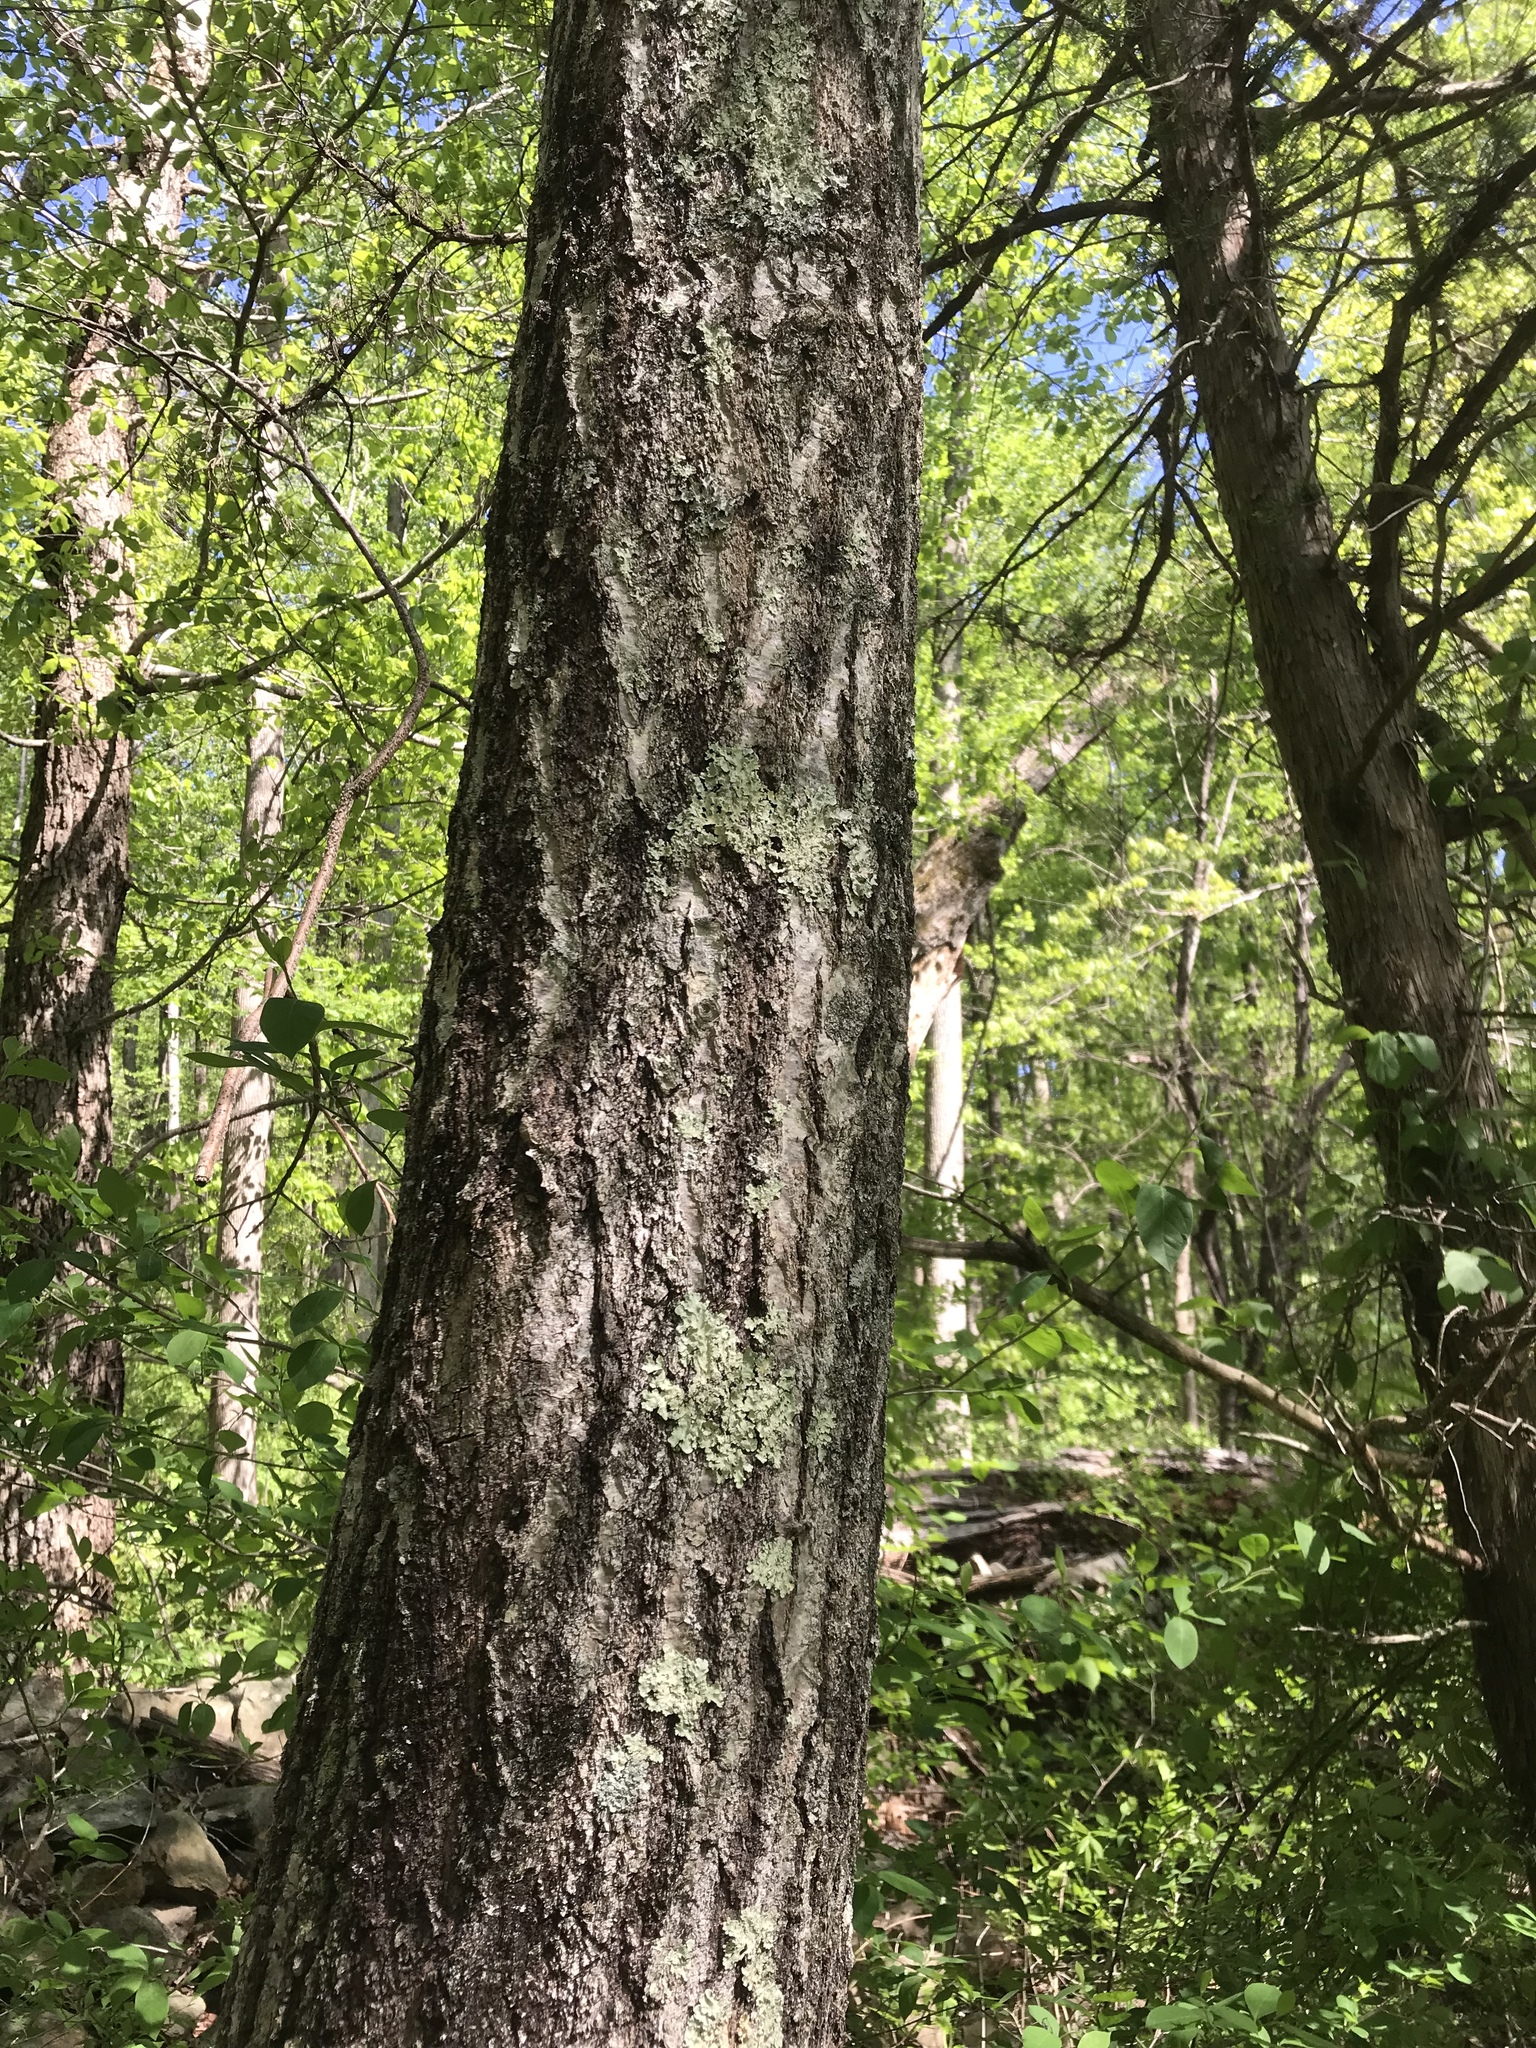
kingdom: Plantae
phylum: Tracheophyta
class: Magnoliopsida
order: Fagales
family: Fagaceae
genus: Quercus
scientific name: Quercus rubra
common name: Red oak
